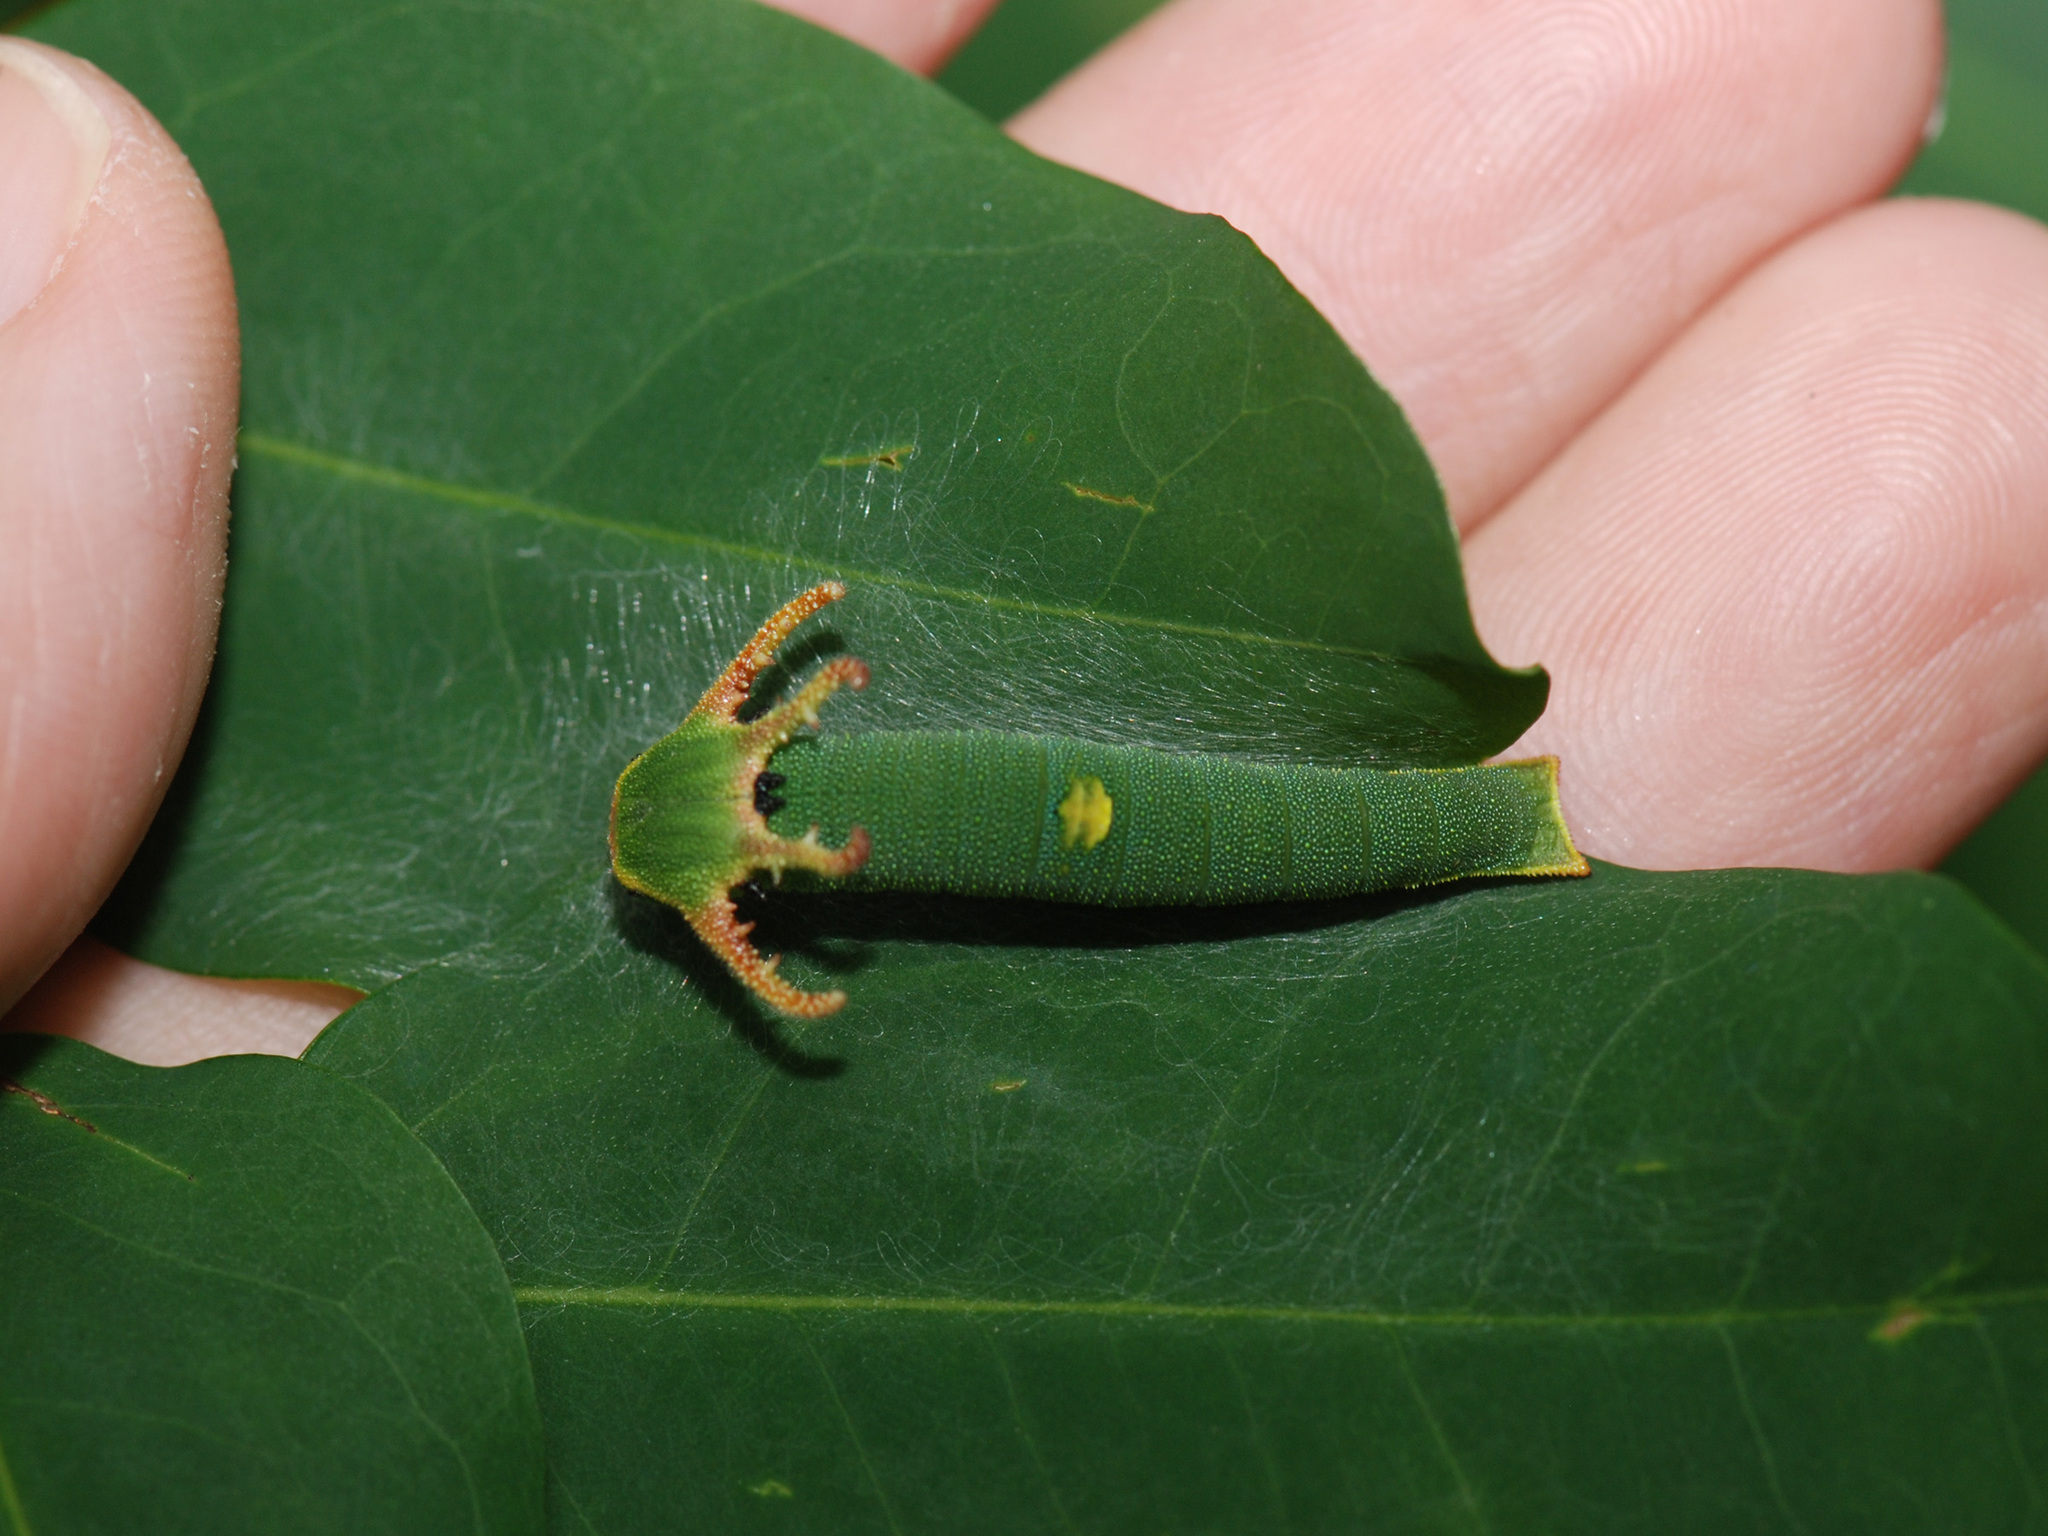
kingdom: Animalia
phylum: Arthropoda
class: Insecta
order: Lepidoptera
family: Nymphalidae
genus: Polyura
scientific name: Polyura schreiber
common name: Blue nawab
